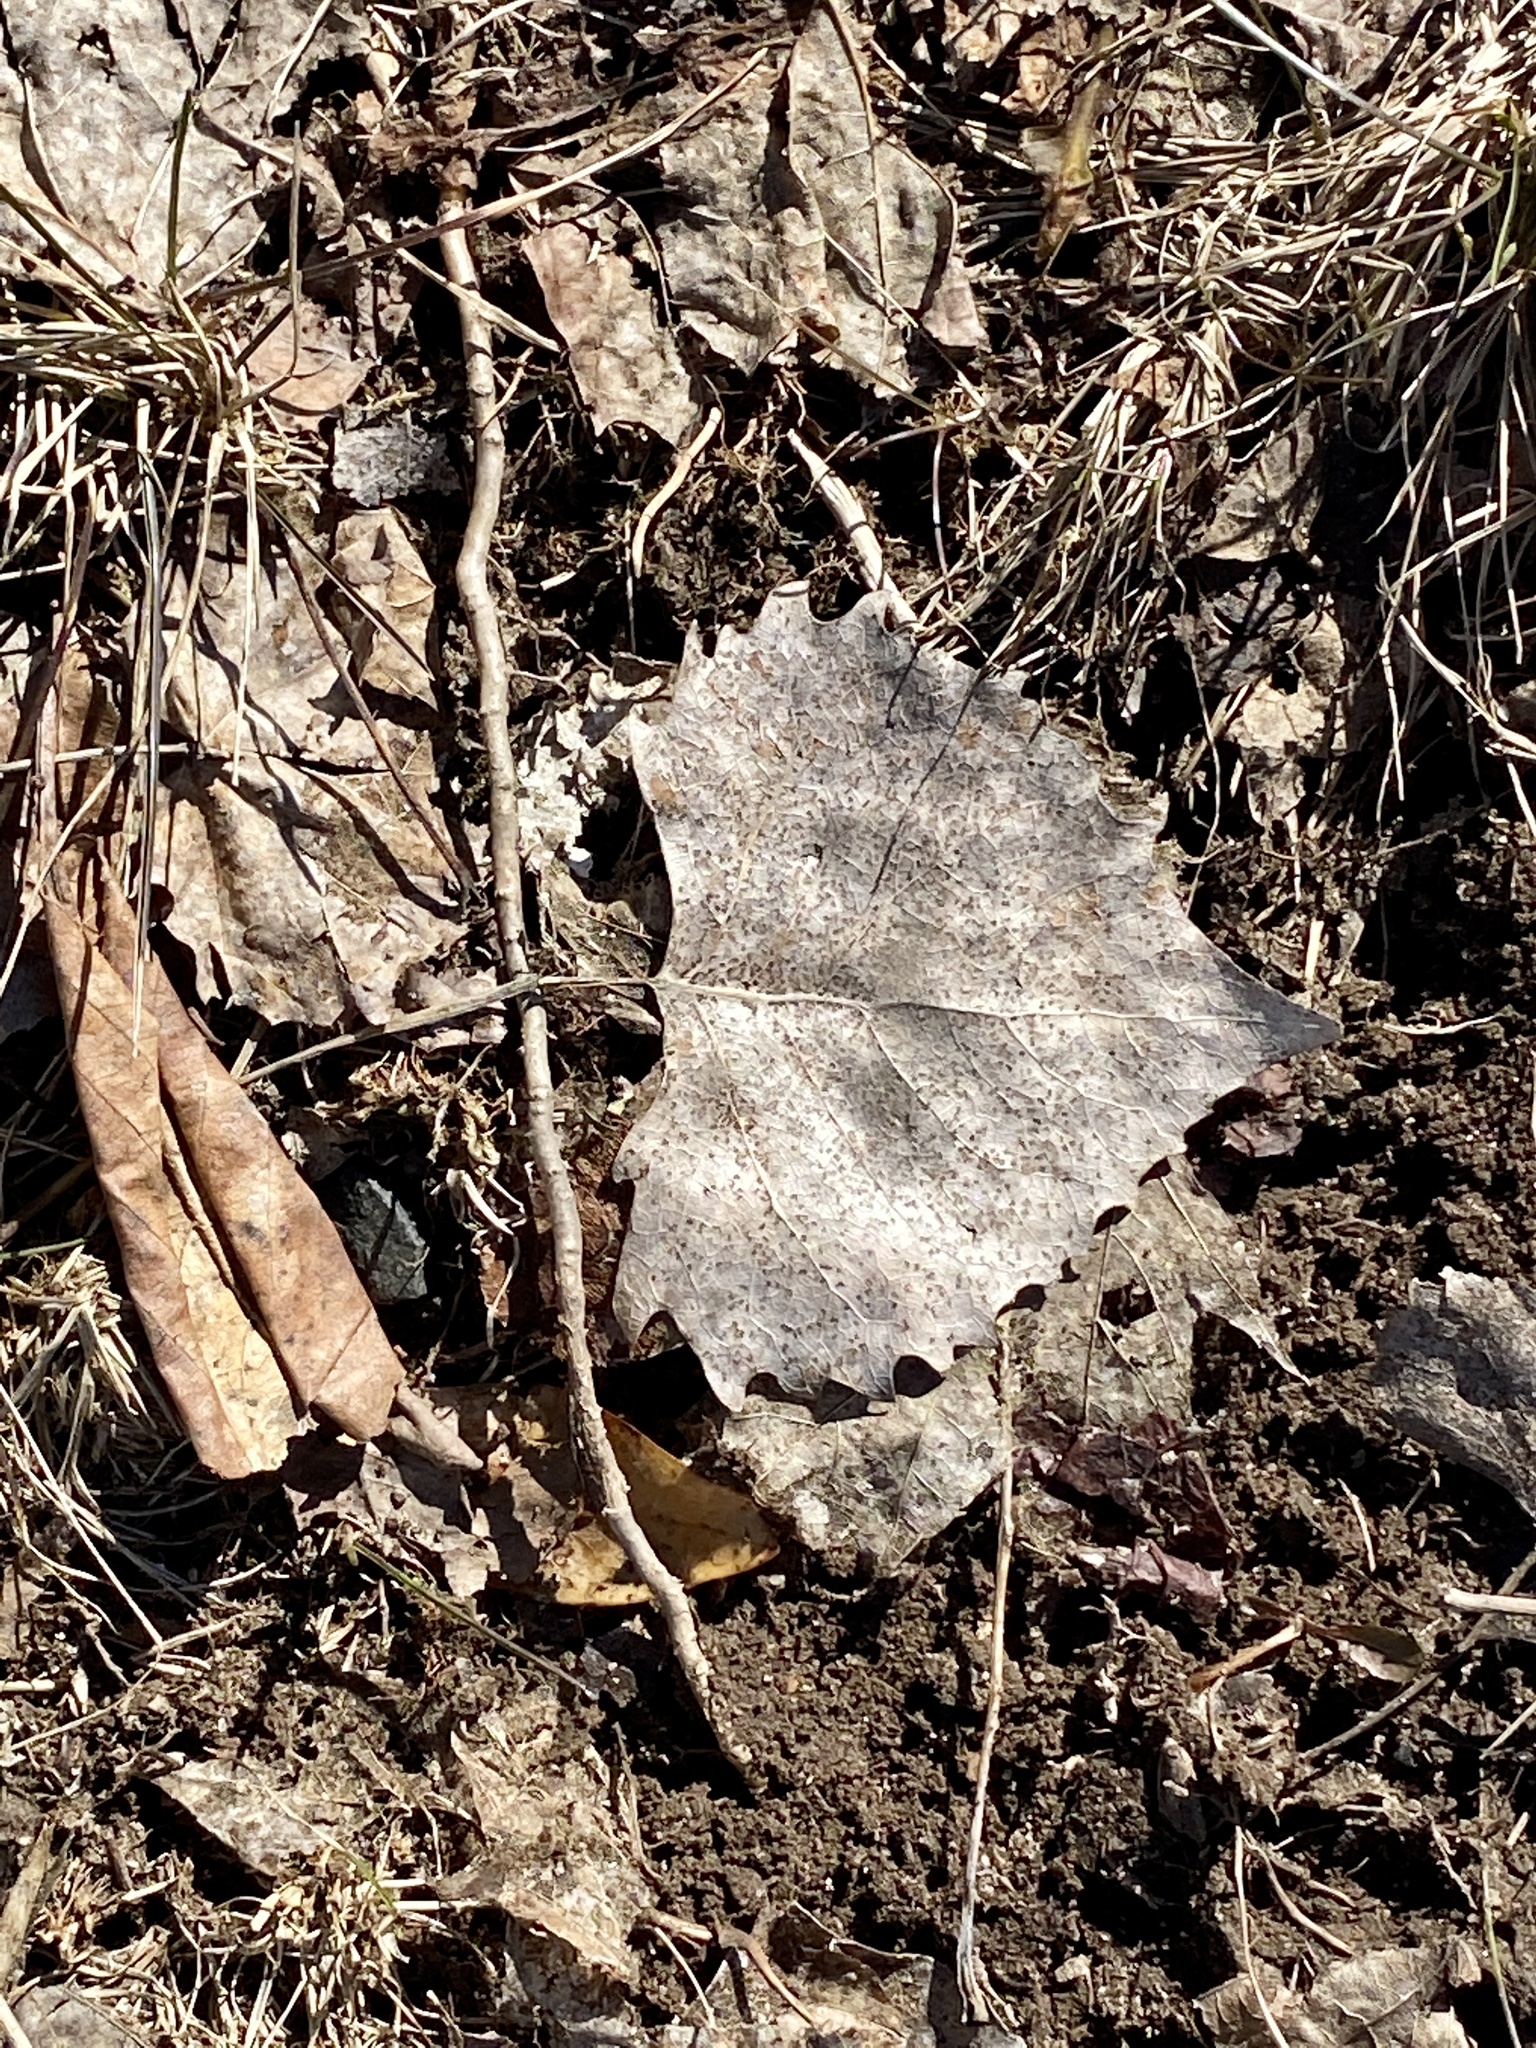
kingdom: Plantae
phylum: Tracheophyta
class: Magnoliopsida
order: Malpighiales
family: Salicaceae
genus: Populus
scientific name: Populus deltoides
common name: Eastern cottonwood
